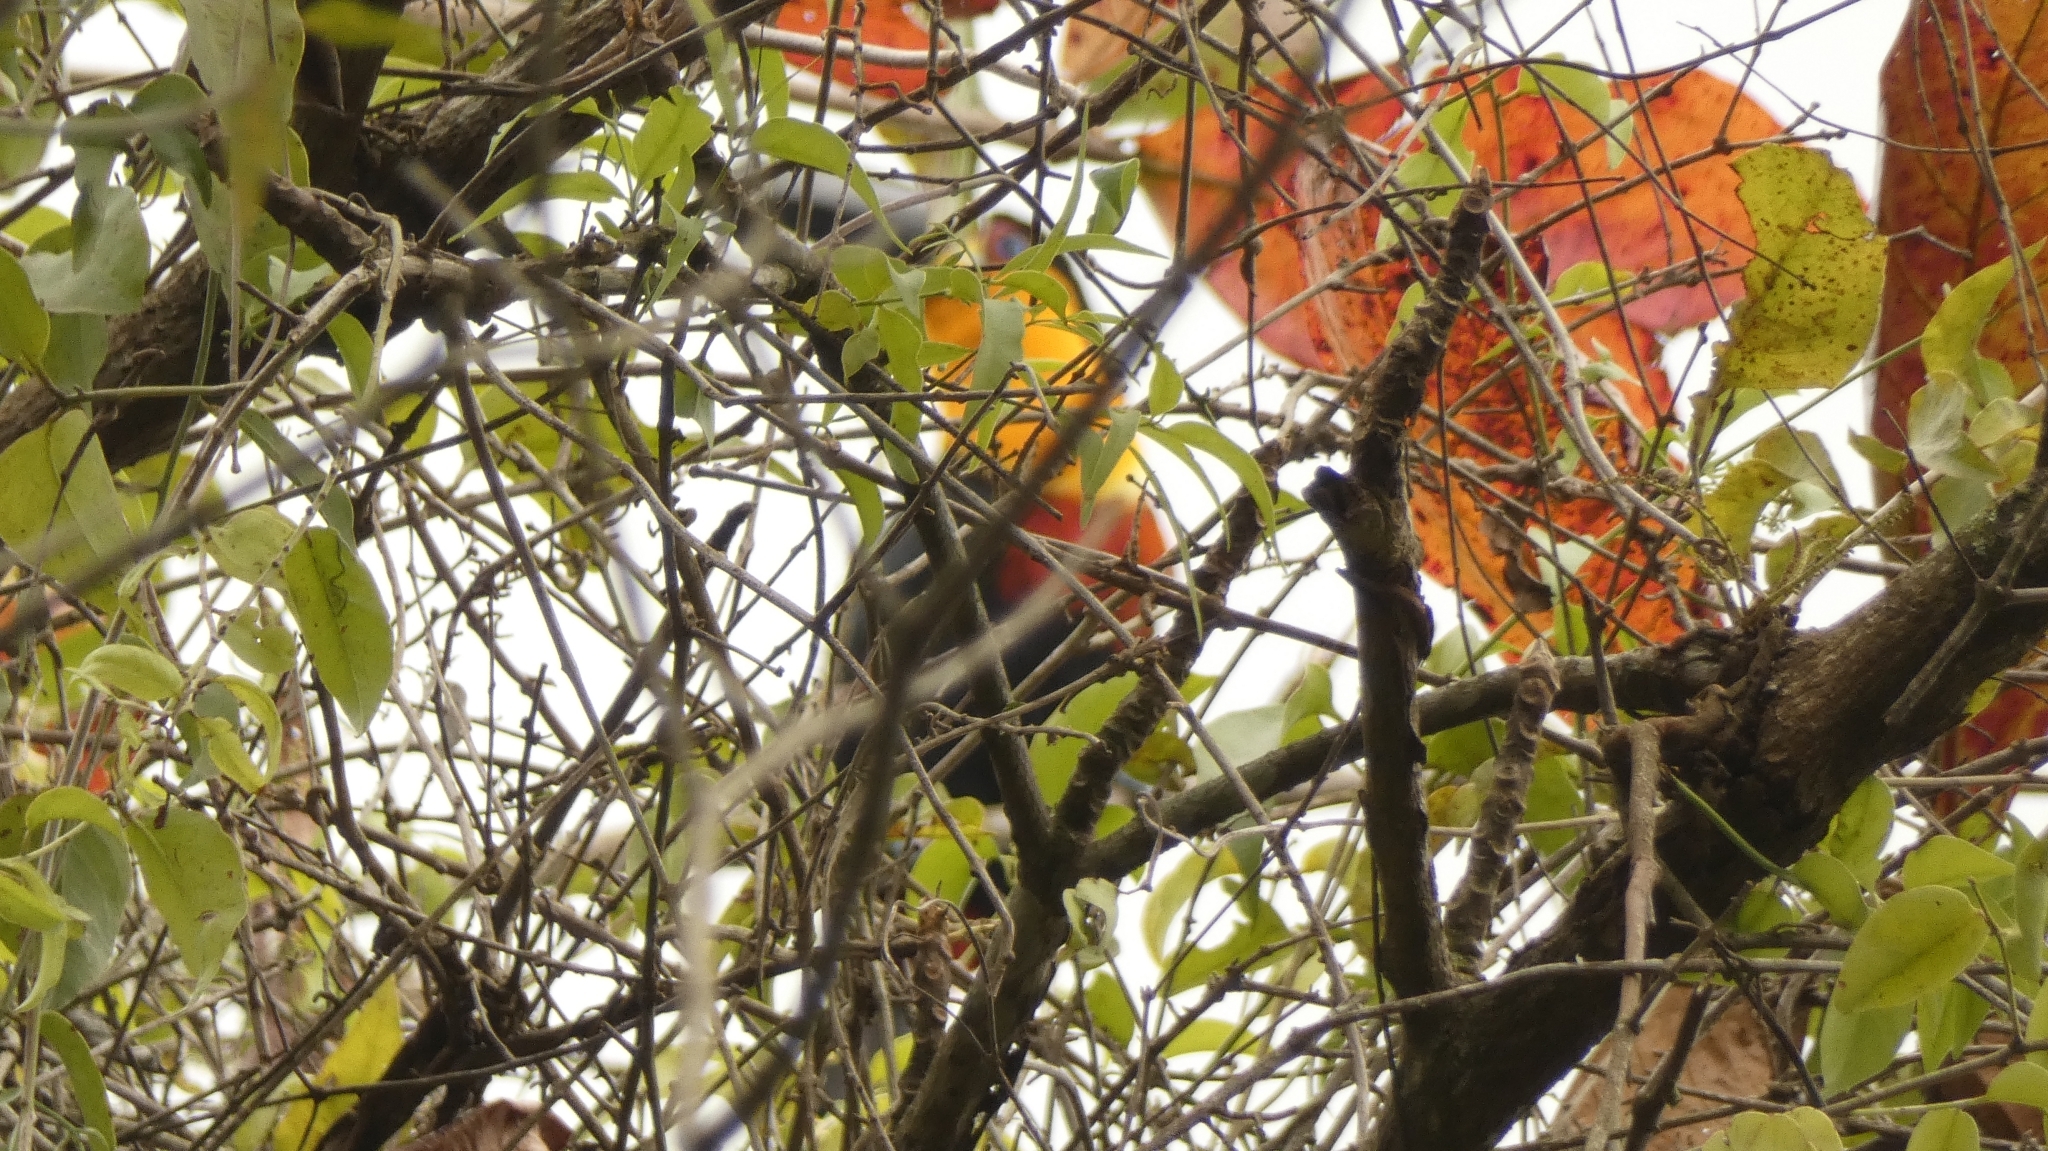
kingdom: Animalia
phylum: Chordata
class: Aves
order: Piciformes
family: Ramphastidae
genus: Ramphastos
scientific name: Ramphastos vitellinus
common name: Channel-billed toucan
